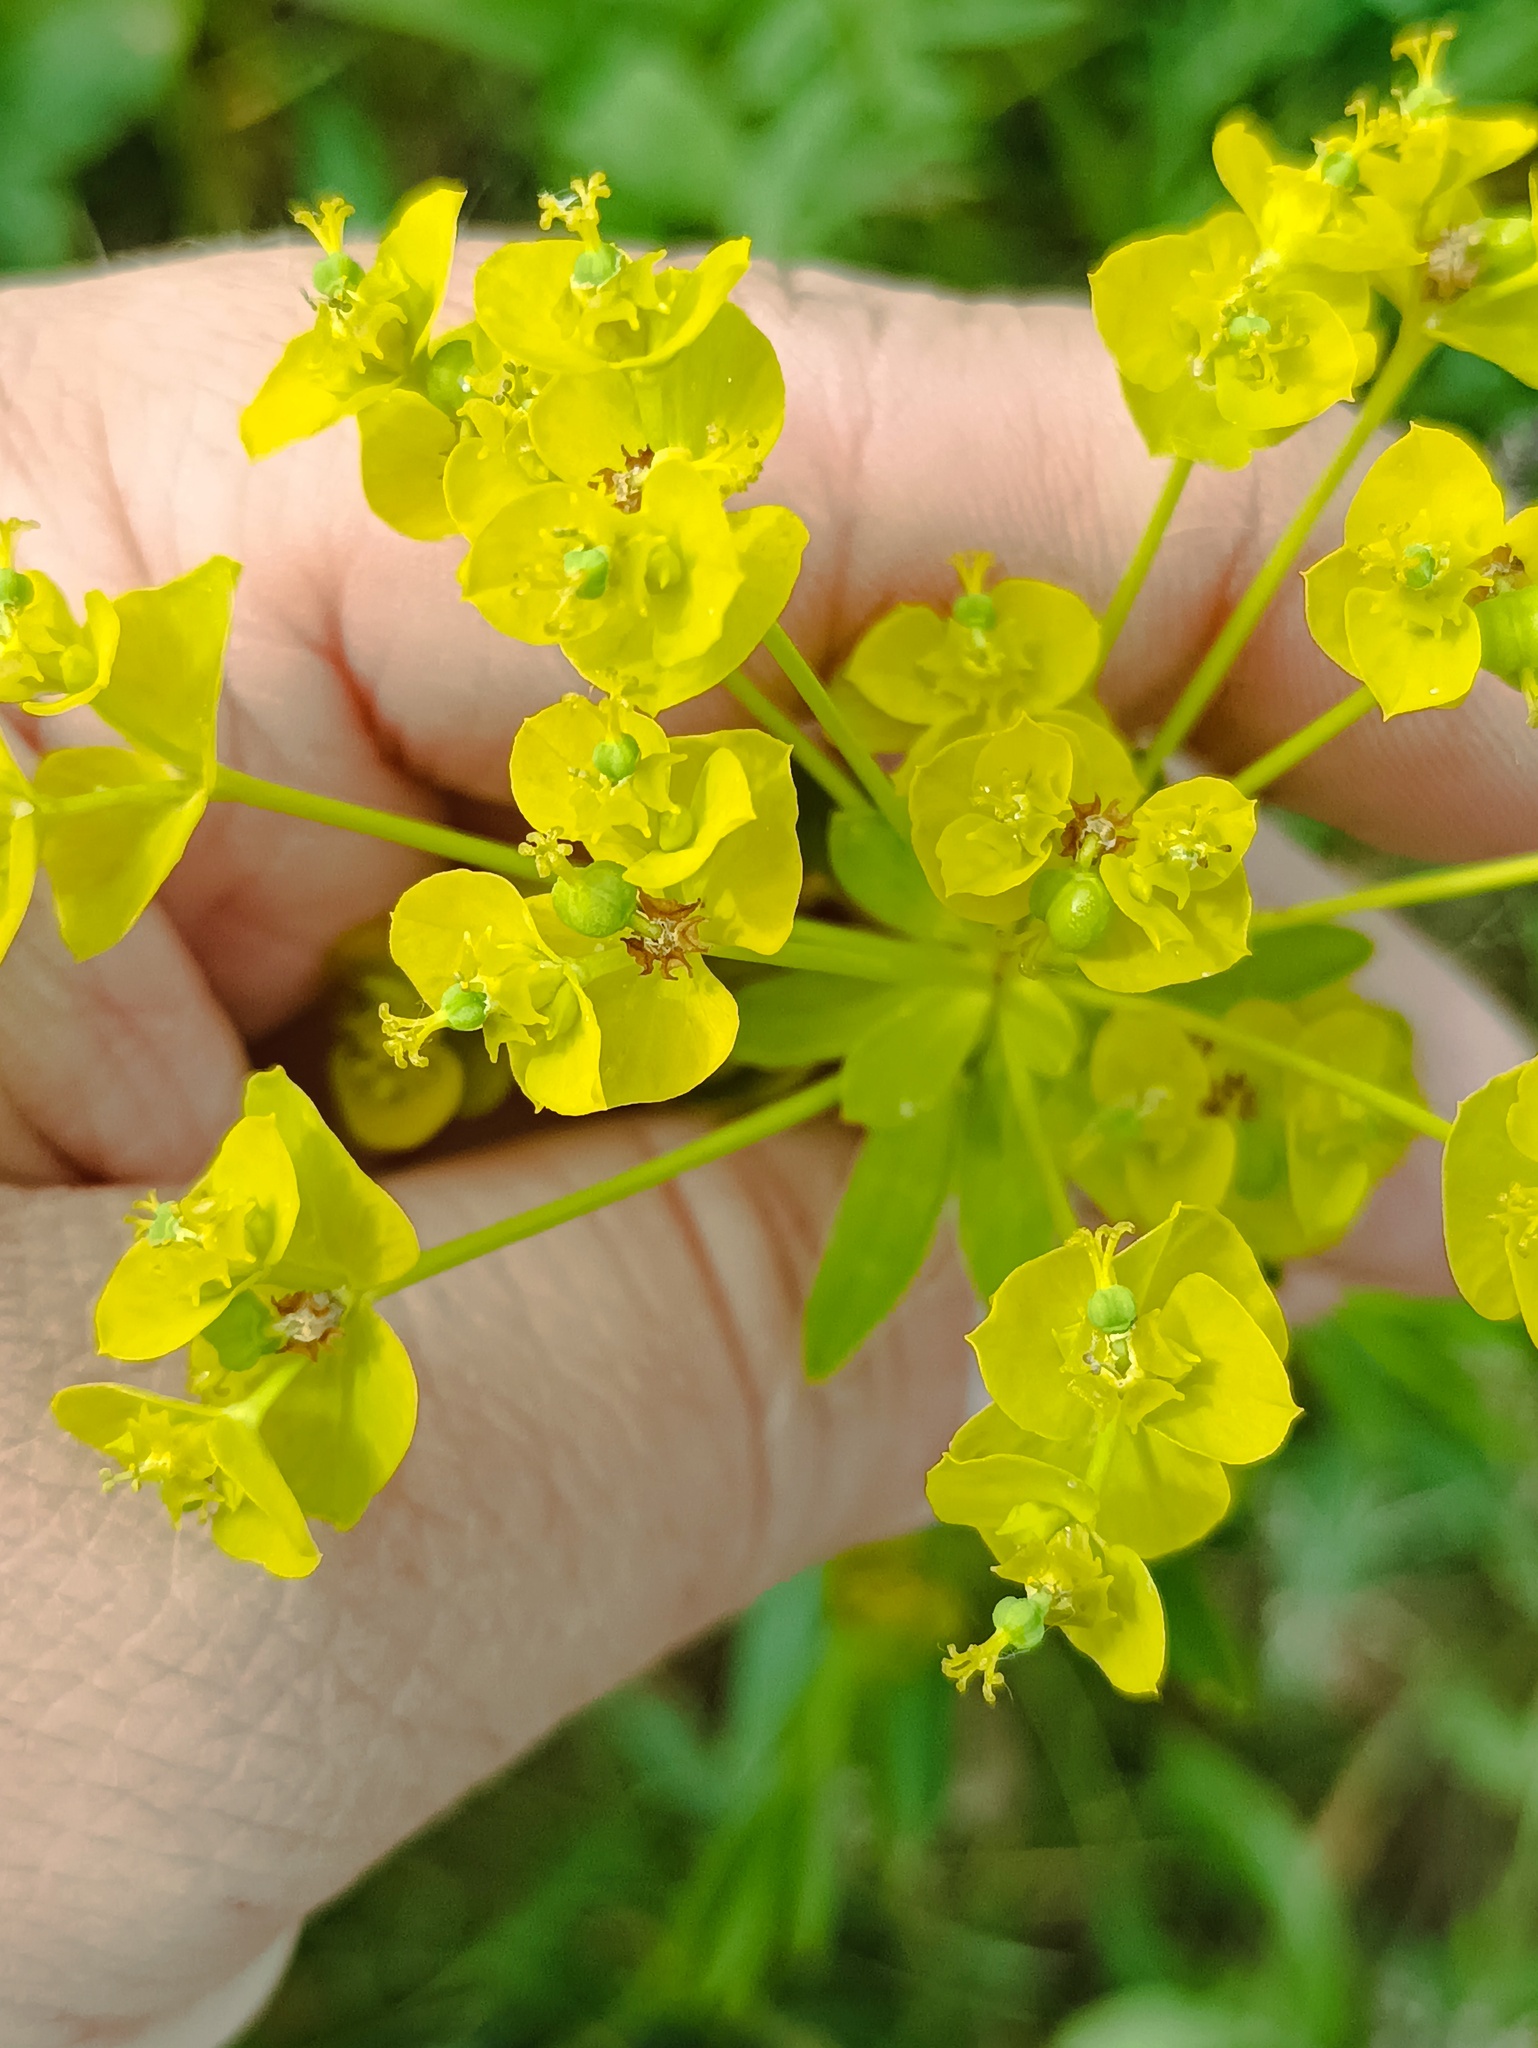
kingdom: Plantae
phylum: Tracheophyta
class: Magnoliopsida
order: Malpighiales
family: Euphorbiaceae
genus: Euphorbia
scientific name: Euphorbia virgata
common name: Leafy spurge
